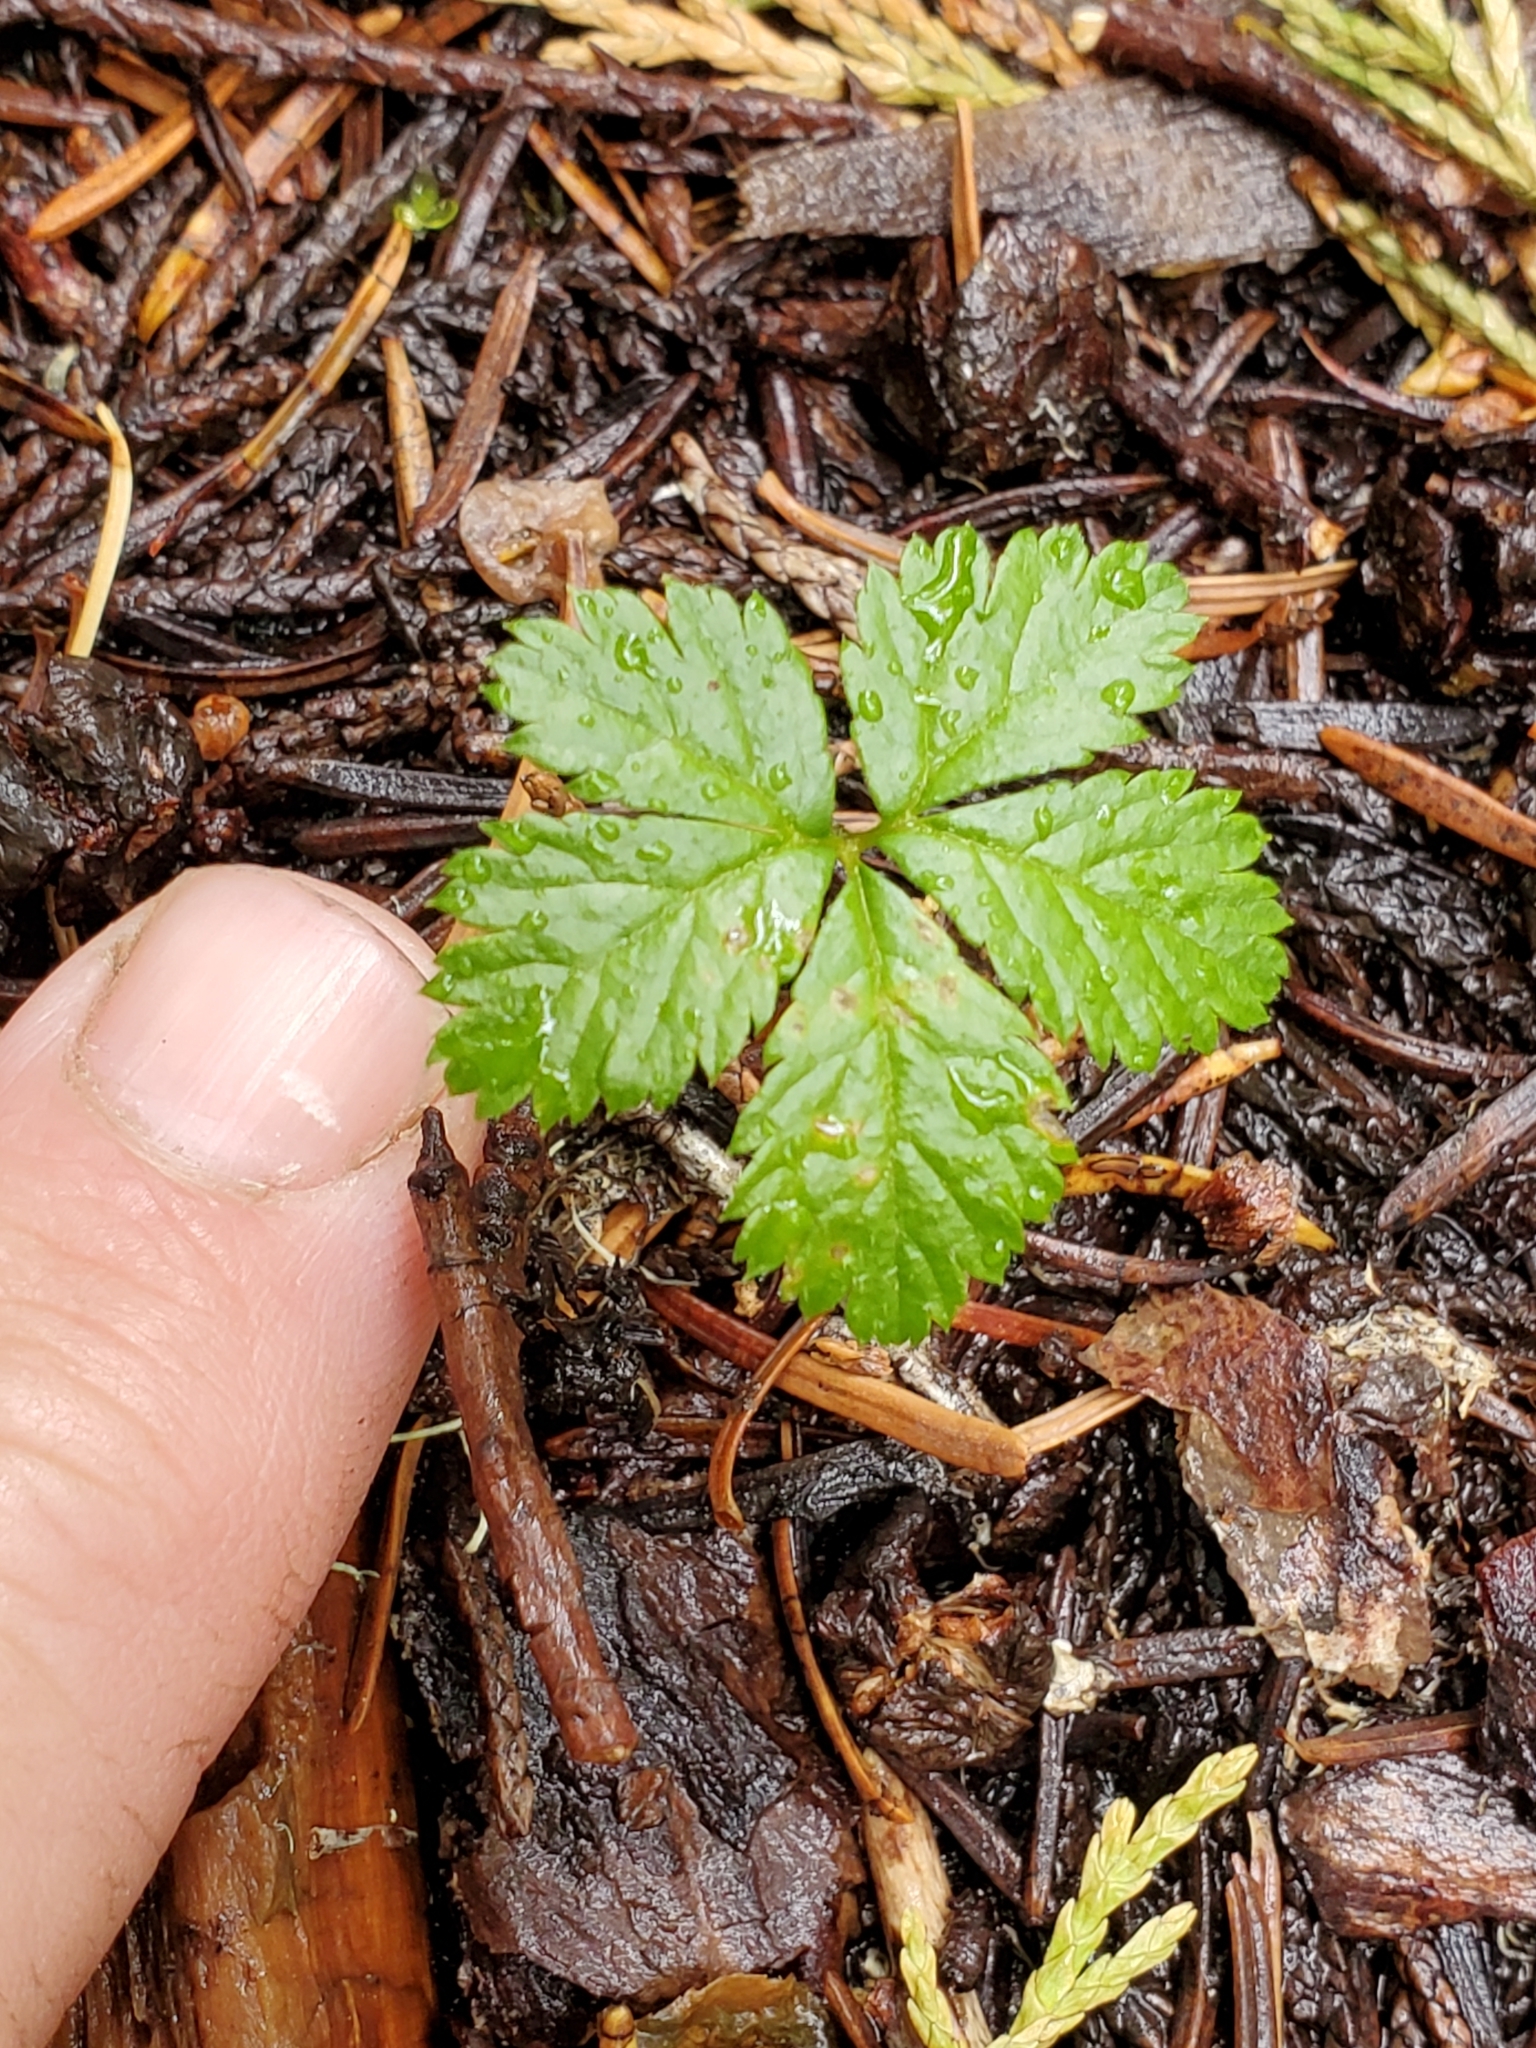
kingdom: Plantae
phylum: Tracheophyta
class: Magnoliopsida
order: Rosales
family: Rosaceae
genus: Rubus
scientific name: Rubus pedatus
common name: Creeping raspberry
